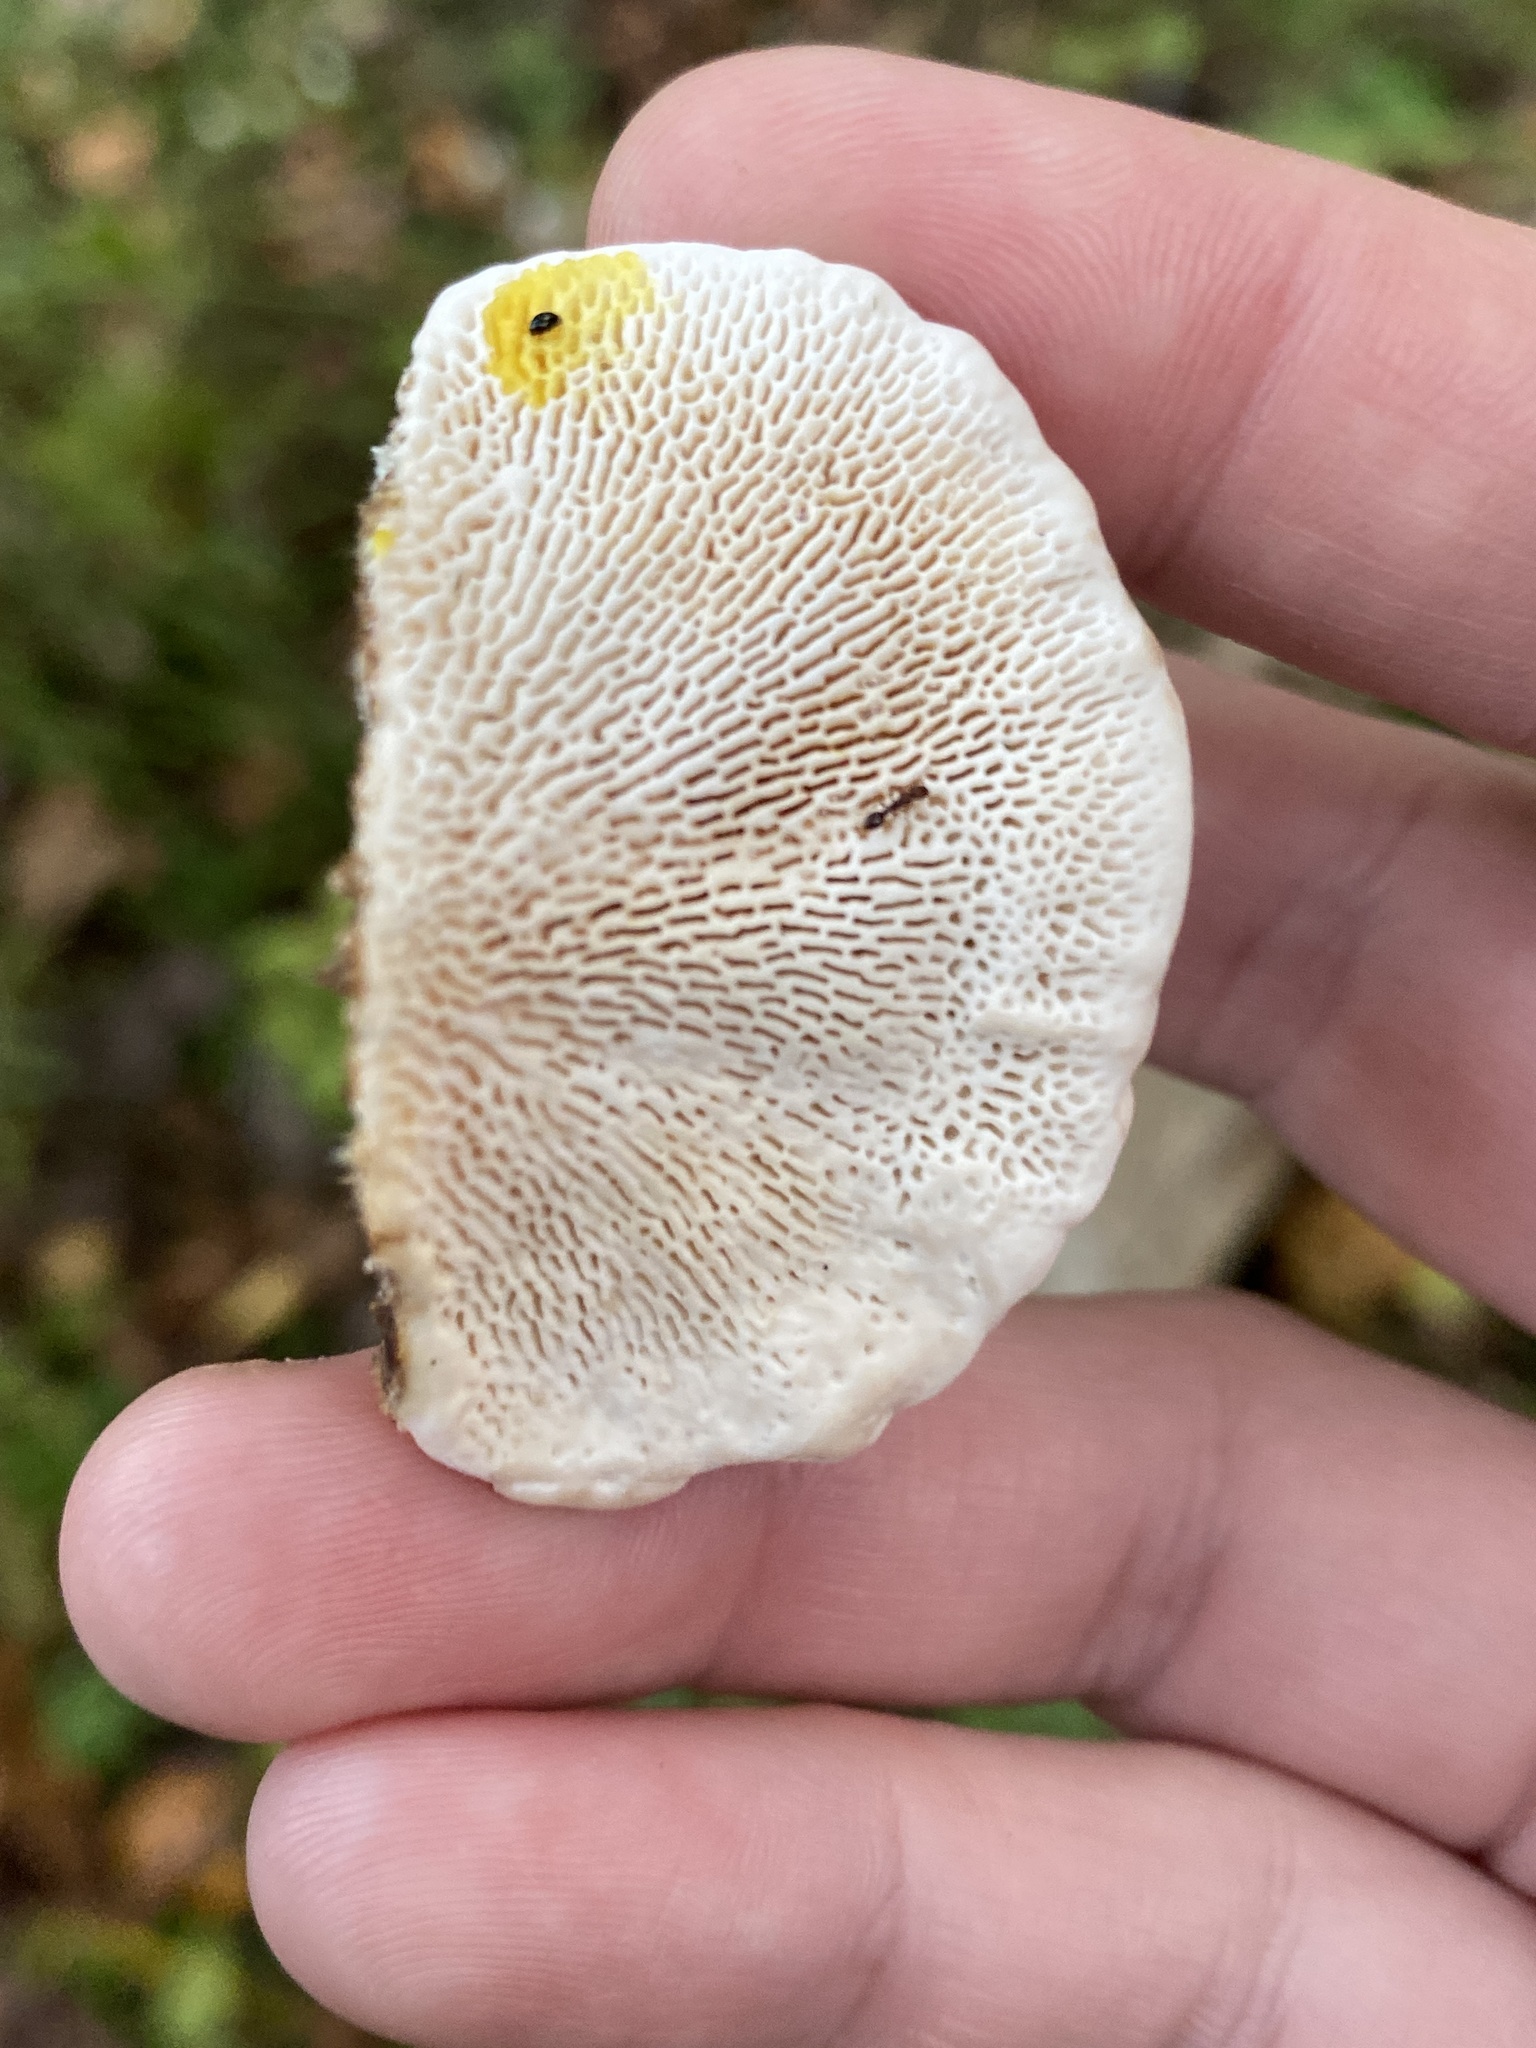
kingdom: Fungi
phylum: Basidiomycota
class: Agaricomycetes
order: Polyporales
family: Polyporaceae
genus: Trametes
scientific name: Trametes gibbosa
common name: Lumpy bracket
